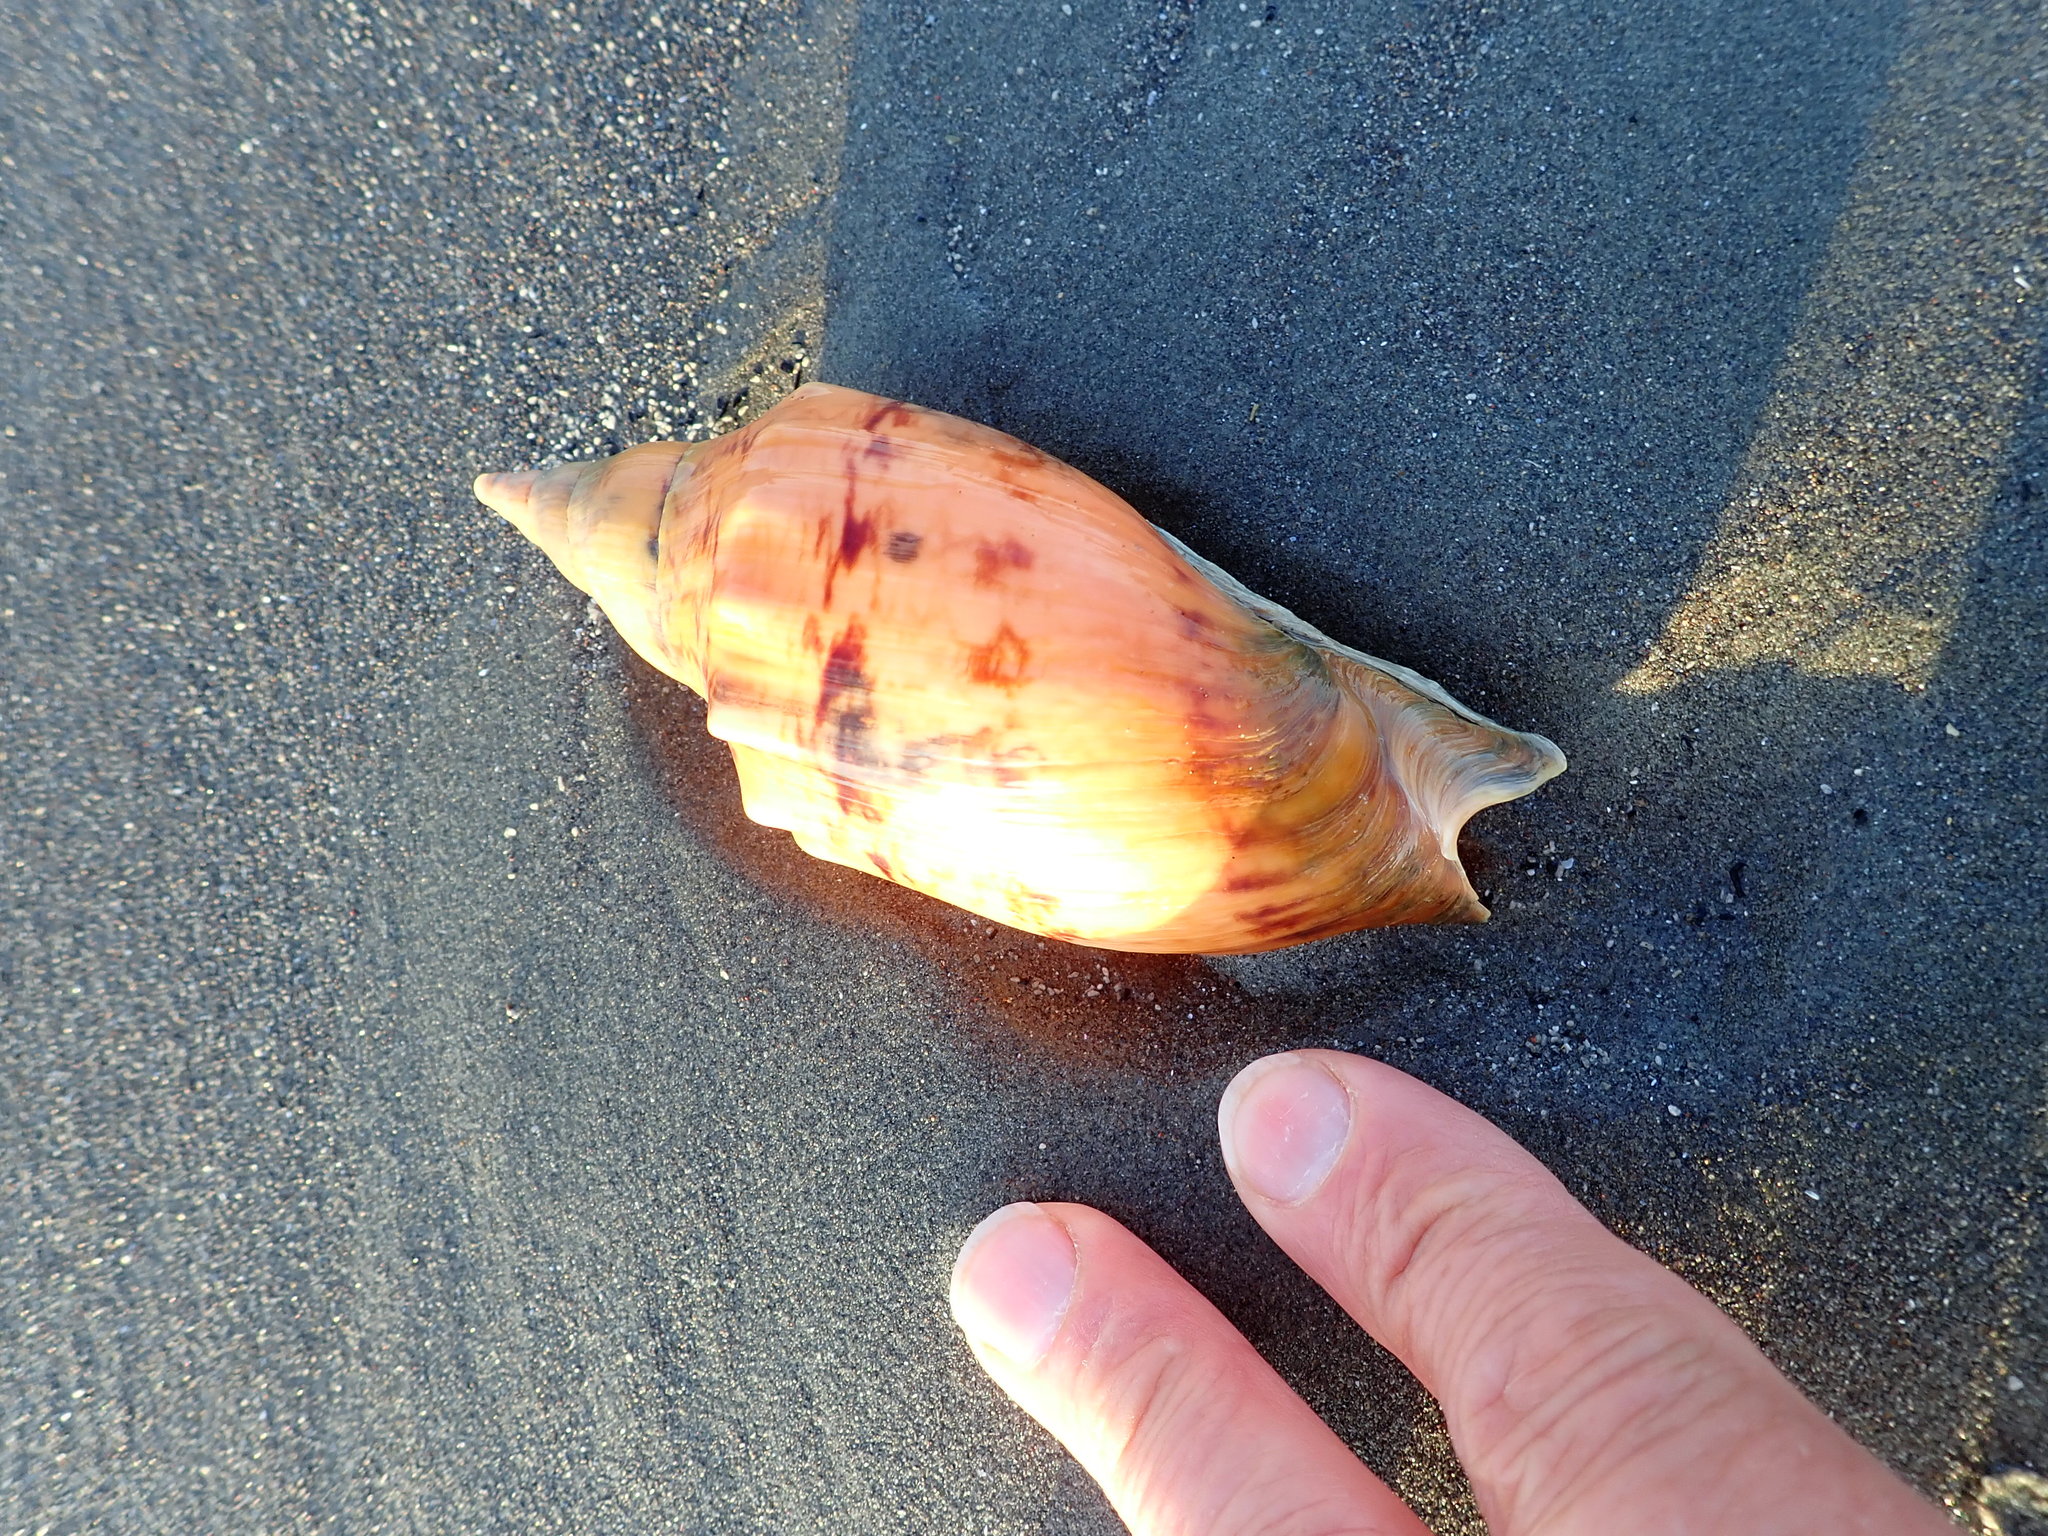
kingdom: Animalia
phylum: Mollusca
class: Gastropoda
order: Neogastropoda
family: Volutidae
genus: Alcithoe
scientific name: Alcithoe arabica
